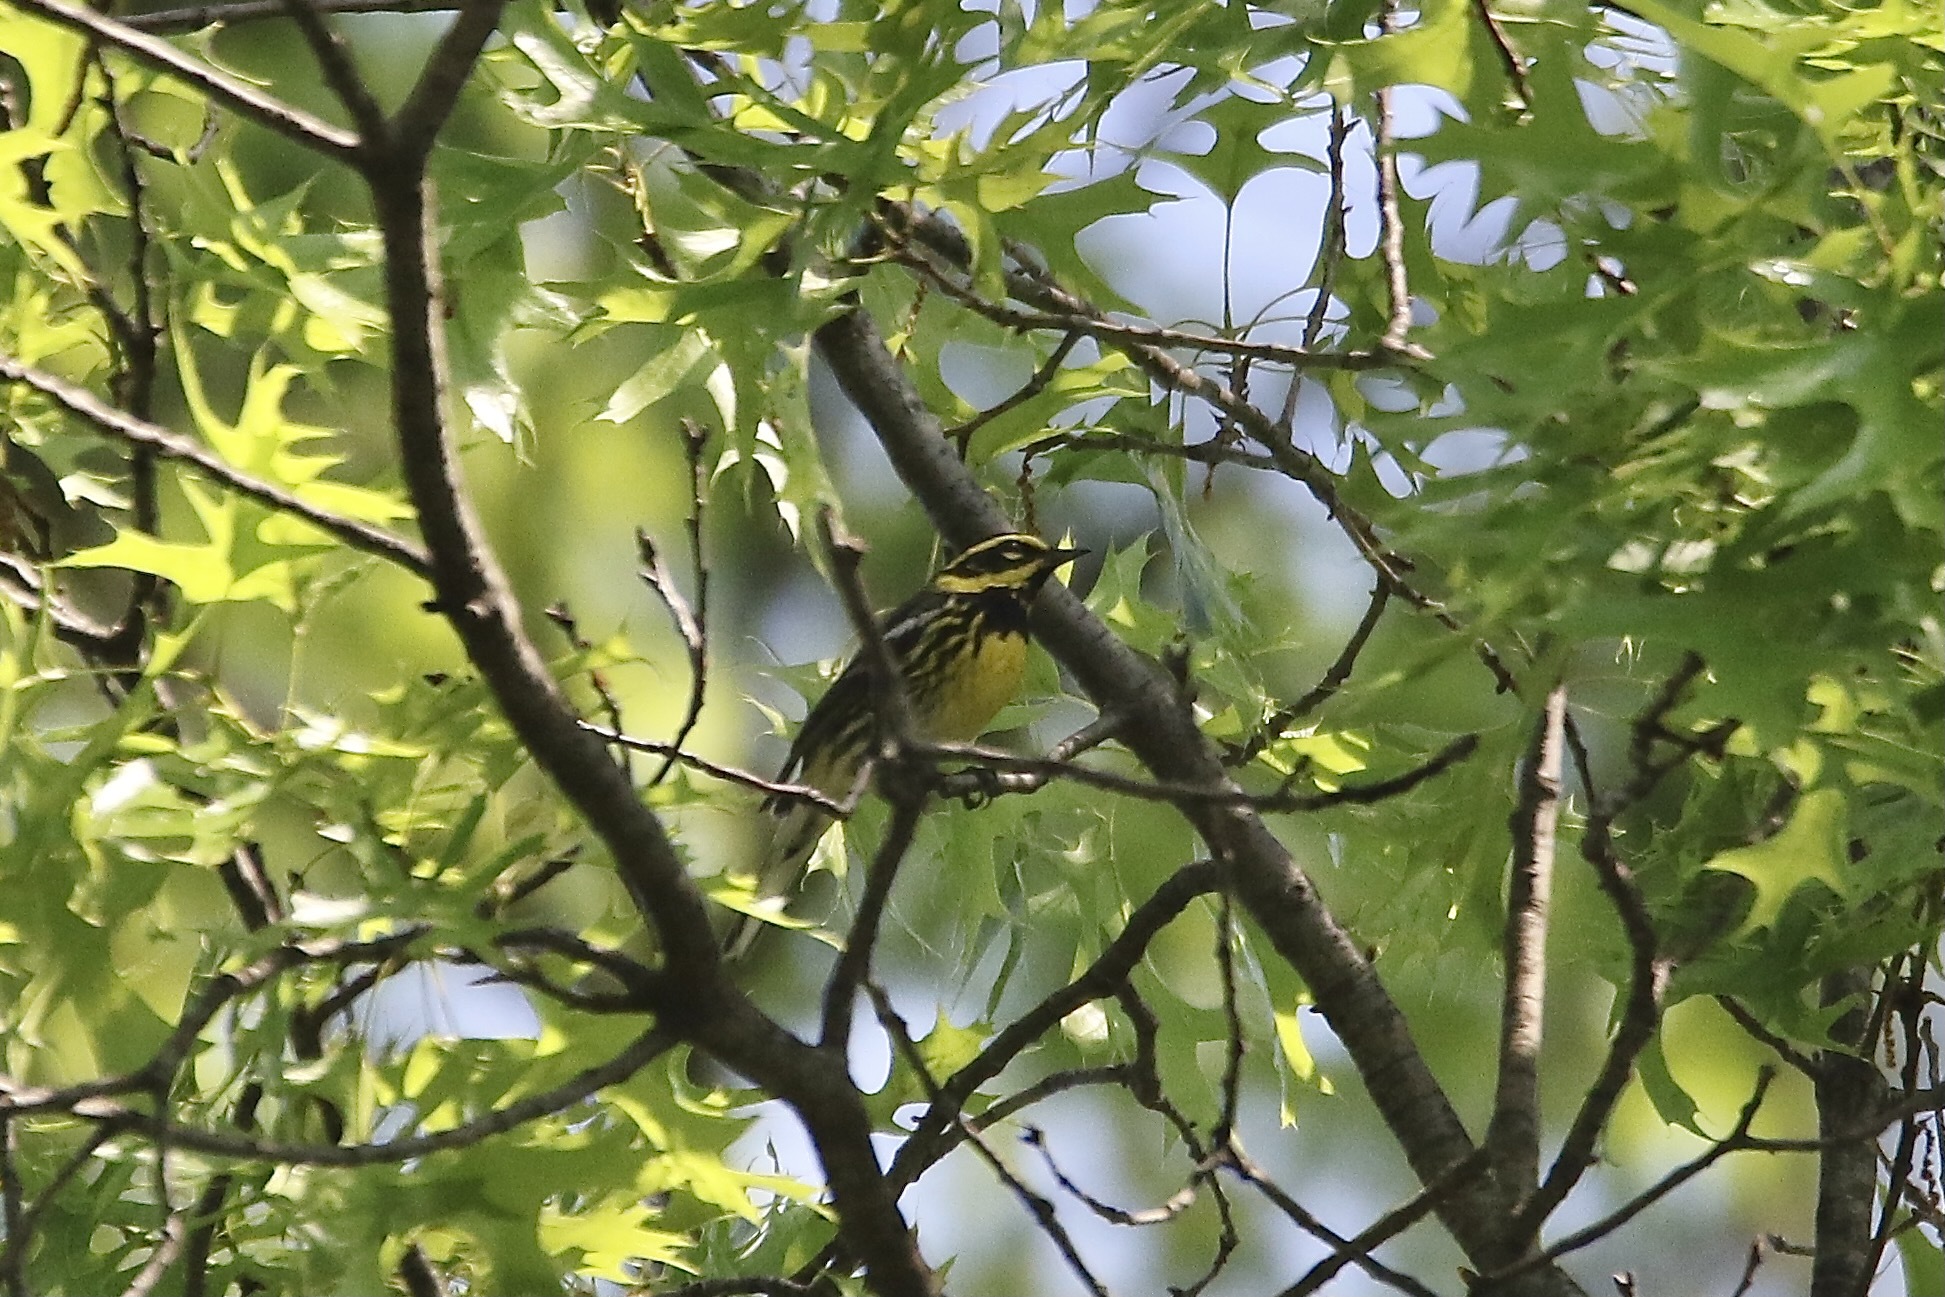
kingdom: Animalia
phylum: Chordata
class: Aves
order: Passeriformes
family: Parulidae
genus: Setophaga
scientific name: Setophaga townsendi
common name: Townsend's warbler
